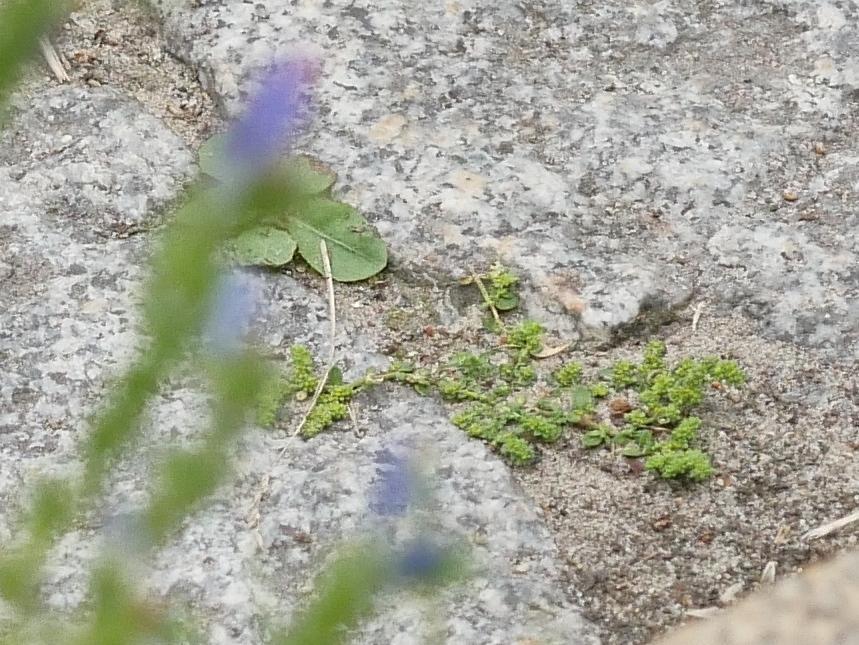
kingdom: Plantae
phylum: Tracheophyta
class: Magnoliopsida
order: Caryophyllales
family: Caryophyllaceae
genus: Herniaria
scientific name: Herniaria glabra
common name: Smooth rupturewort
